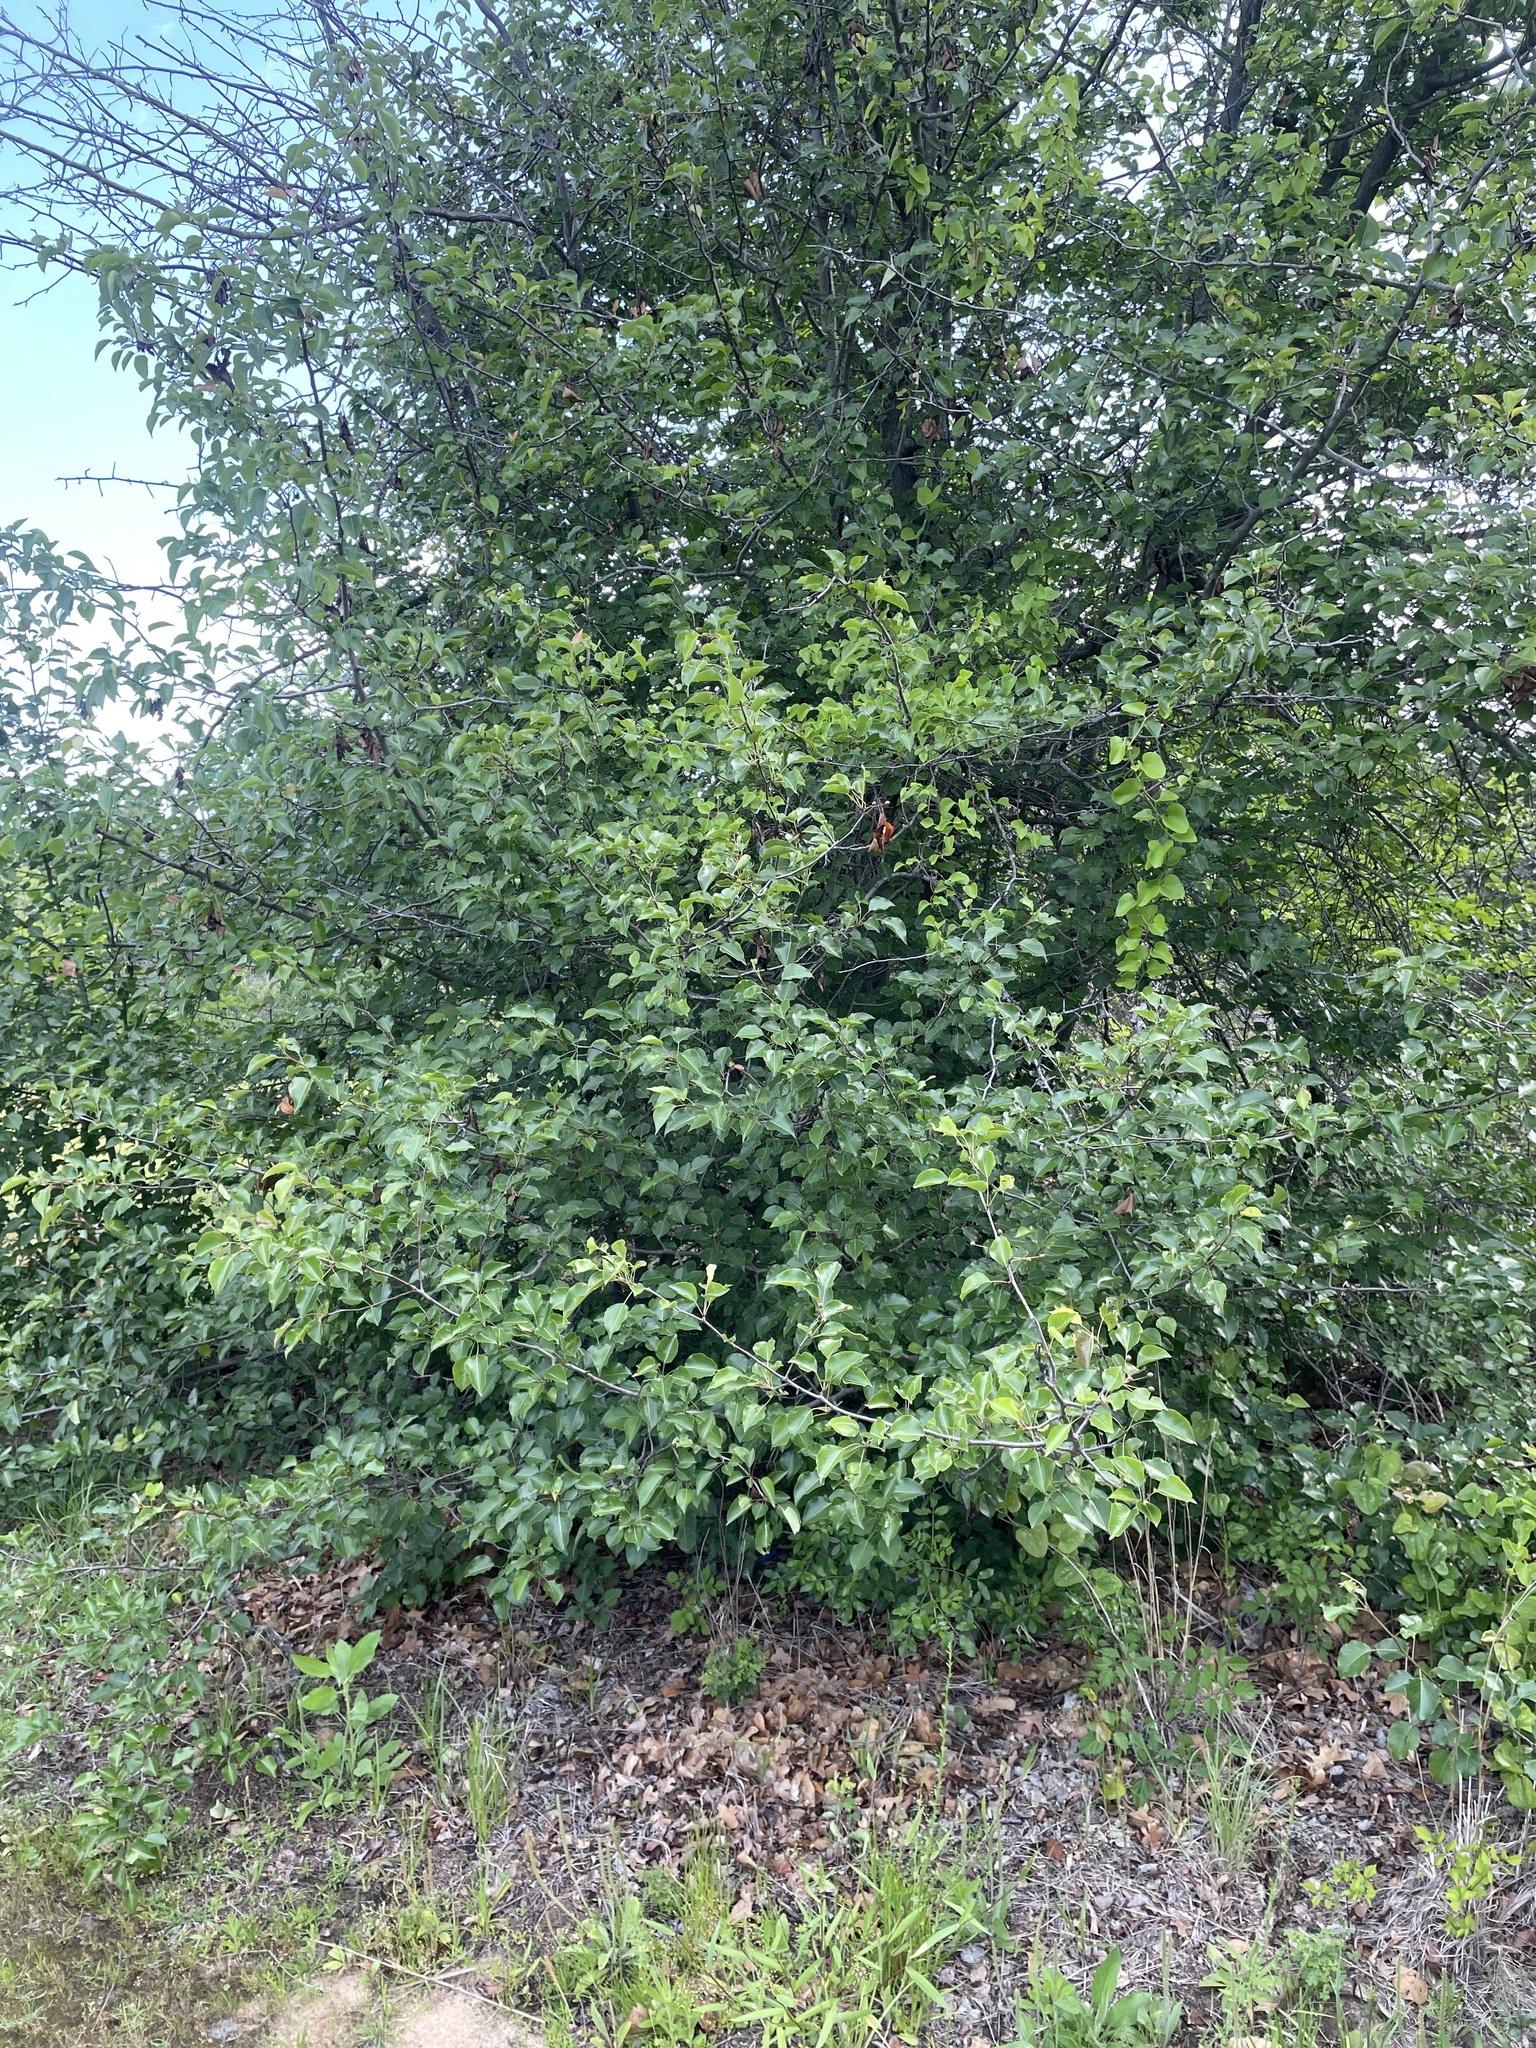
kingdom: Plantae
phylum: Tracheophyta
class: Magnoliopsida
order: Rosales
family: Rosaceae
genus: Pyrus
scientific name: Pyrus calleryana
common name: Callery pear
